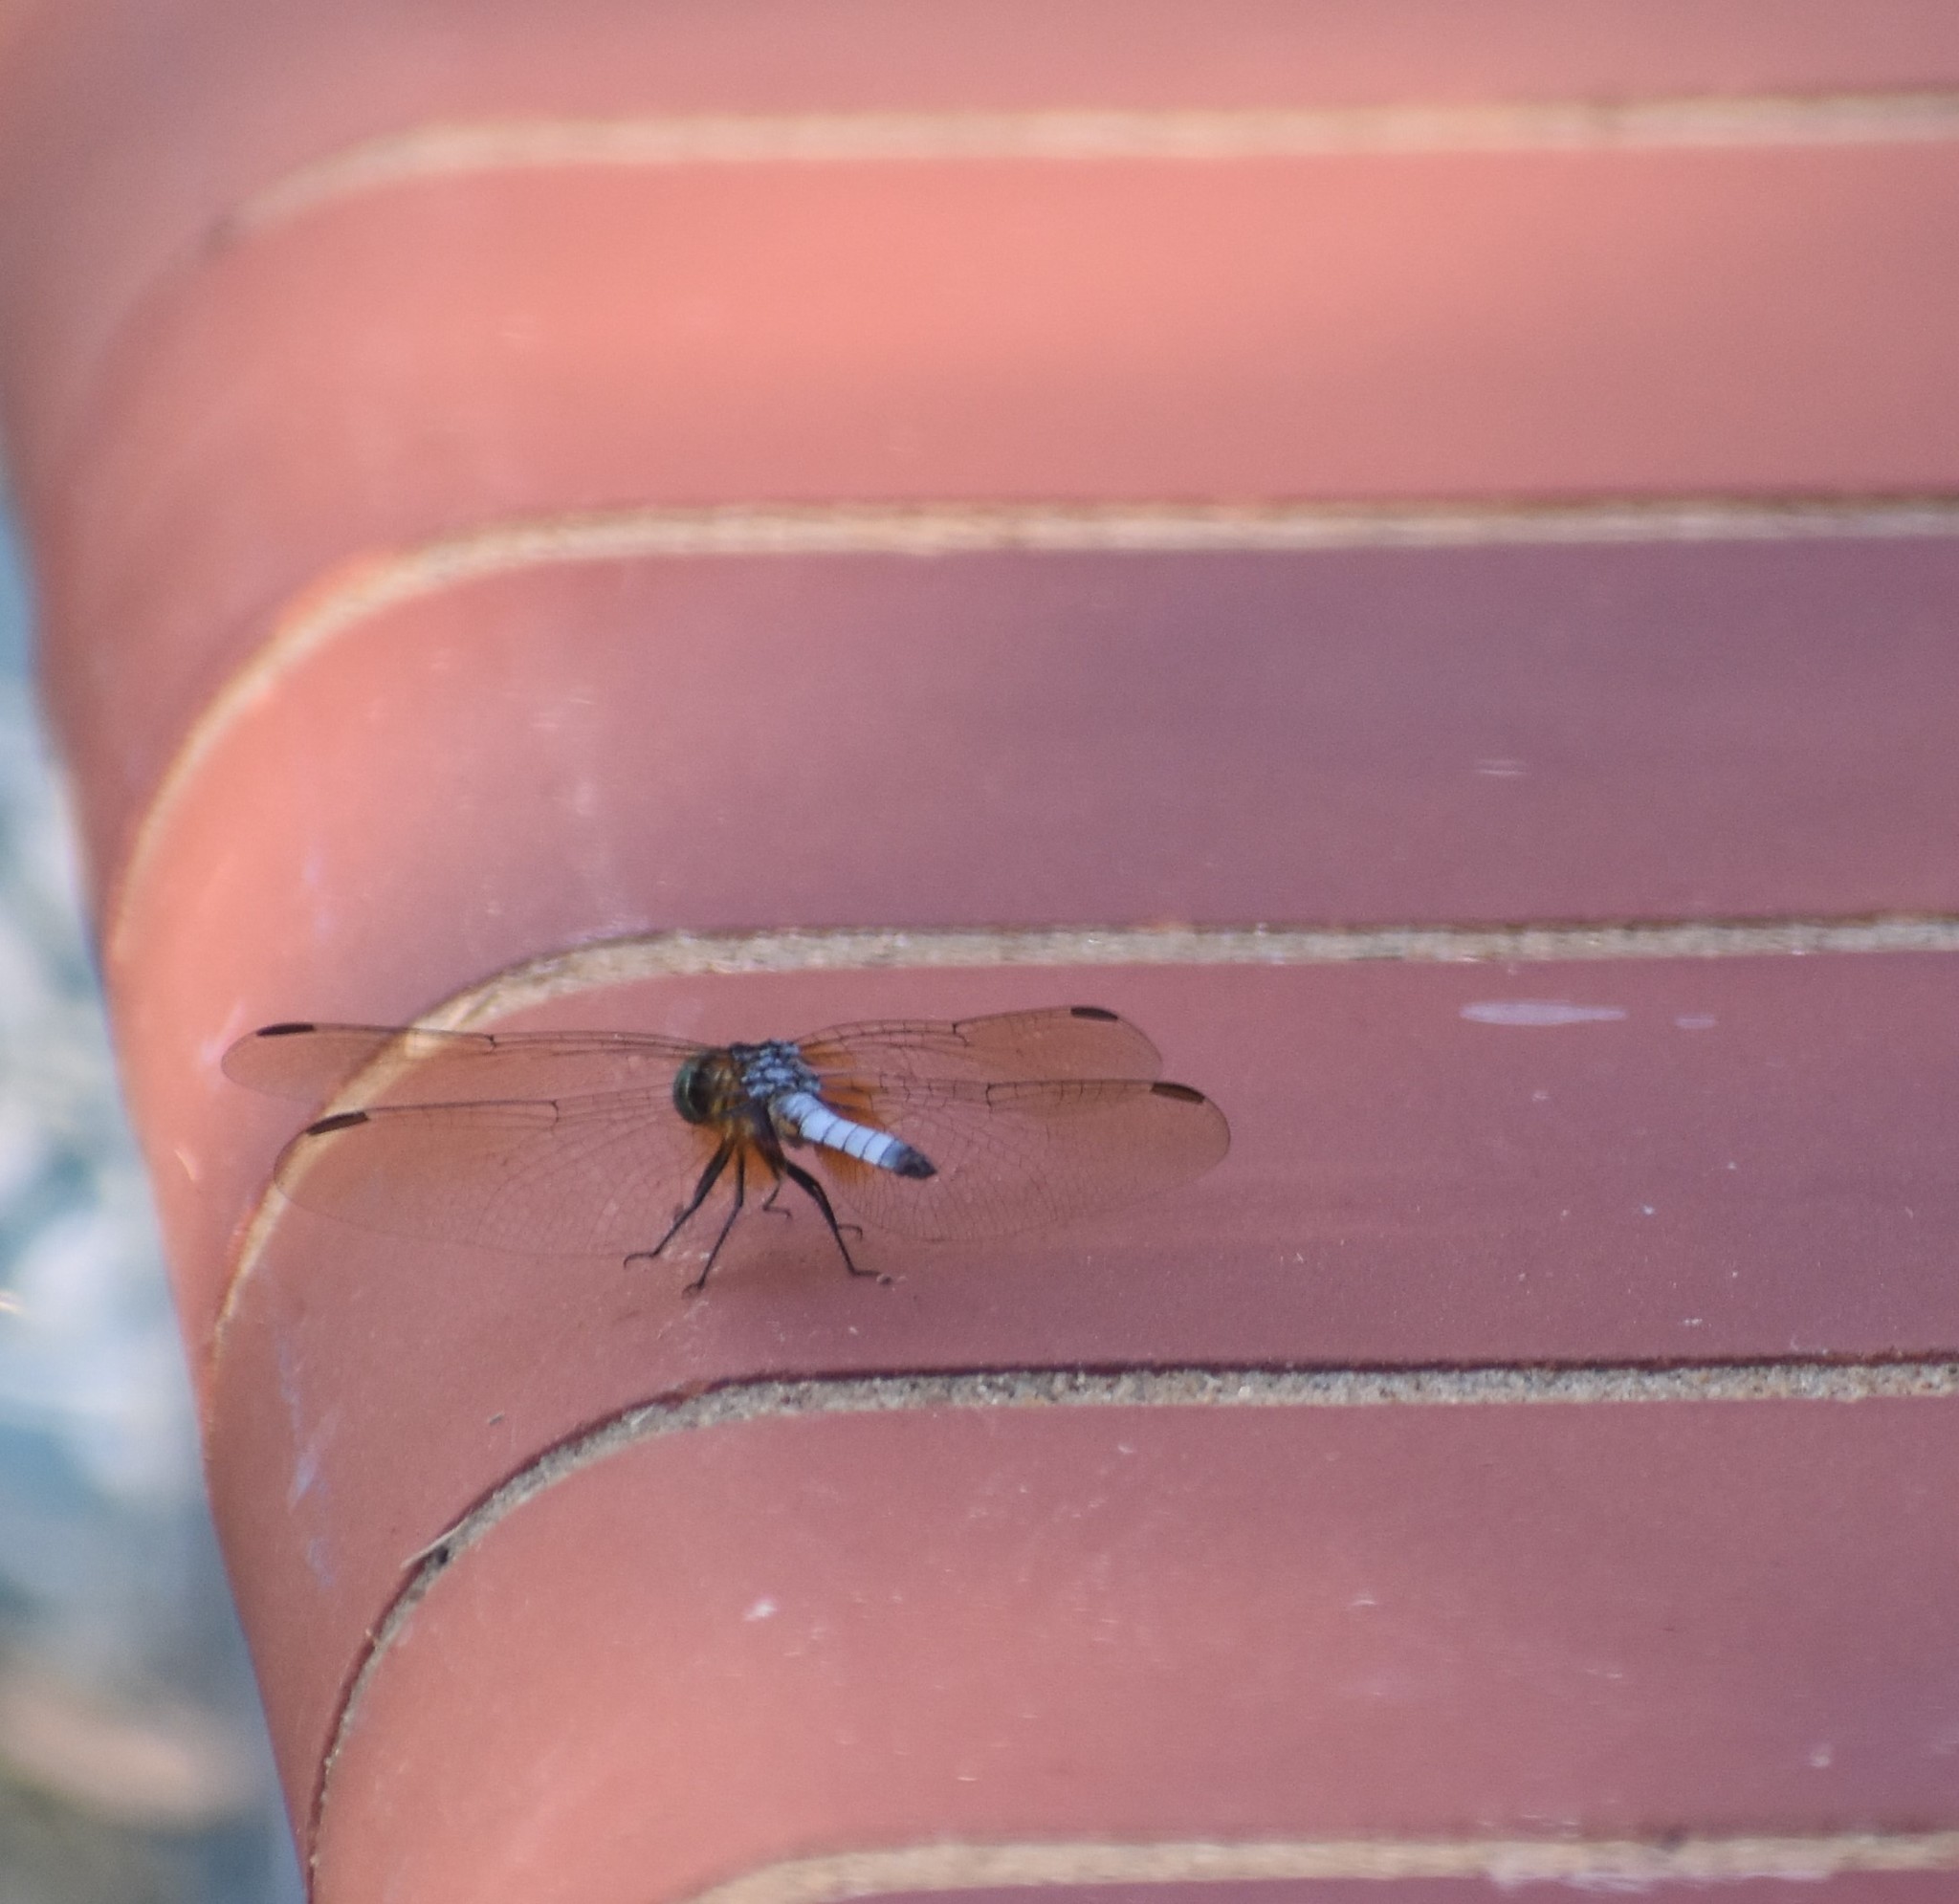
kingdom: Animalia
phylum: Arthropoda
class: Insecta
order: Odonata
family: Libellulidae
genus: Pachydiplax
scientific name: Pachydiplax longipennis
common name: Blue dasher
